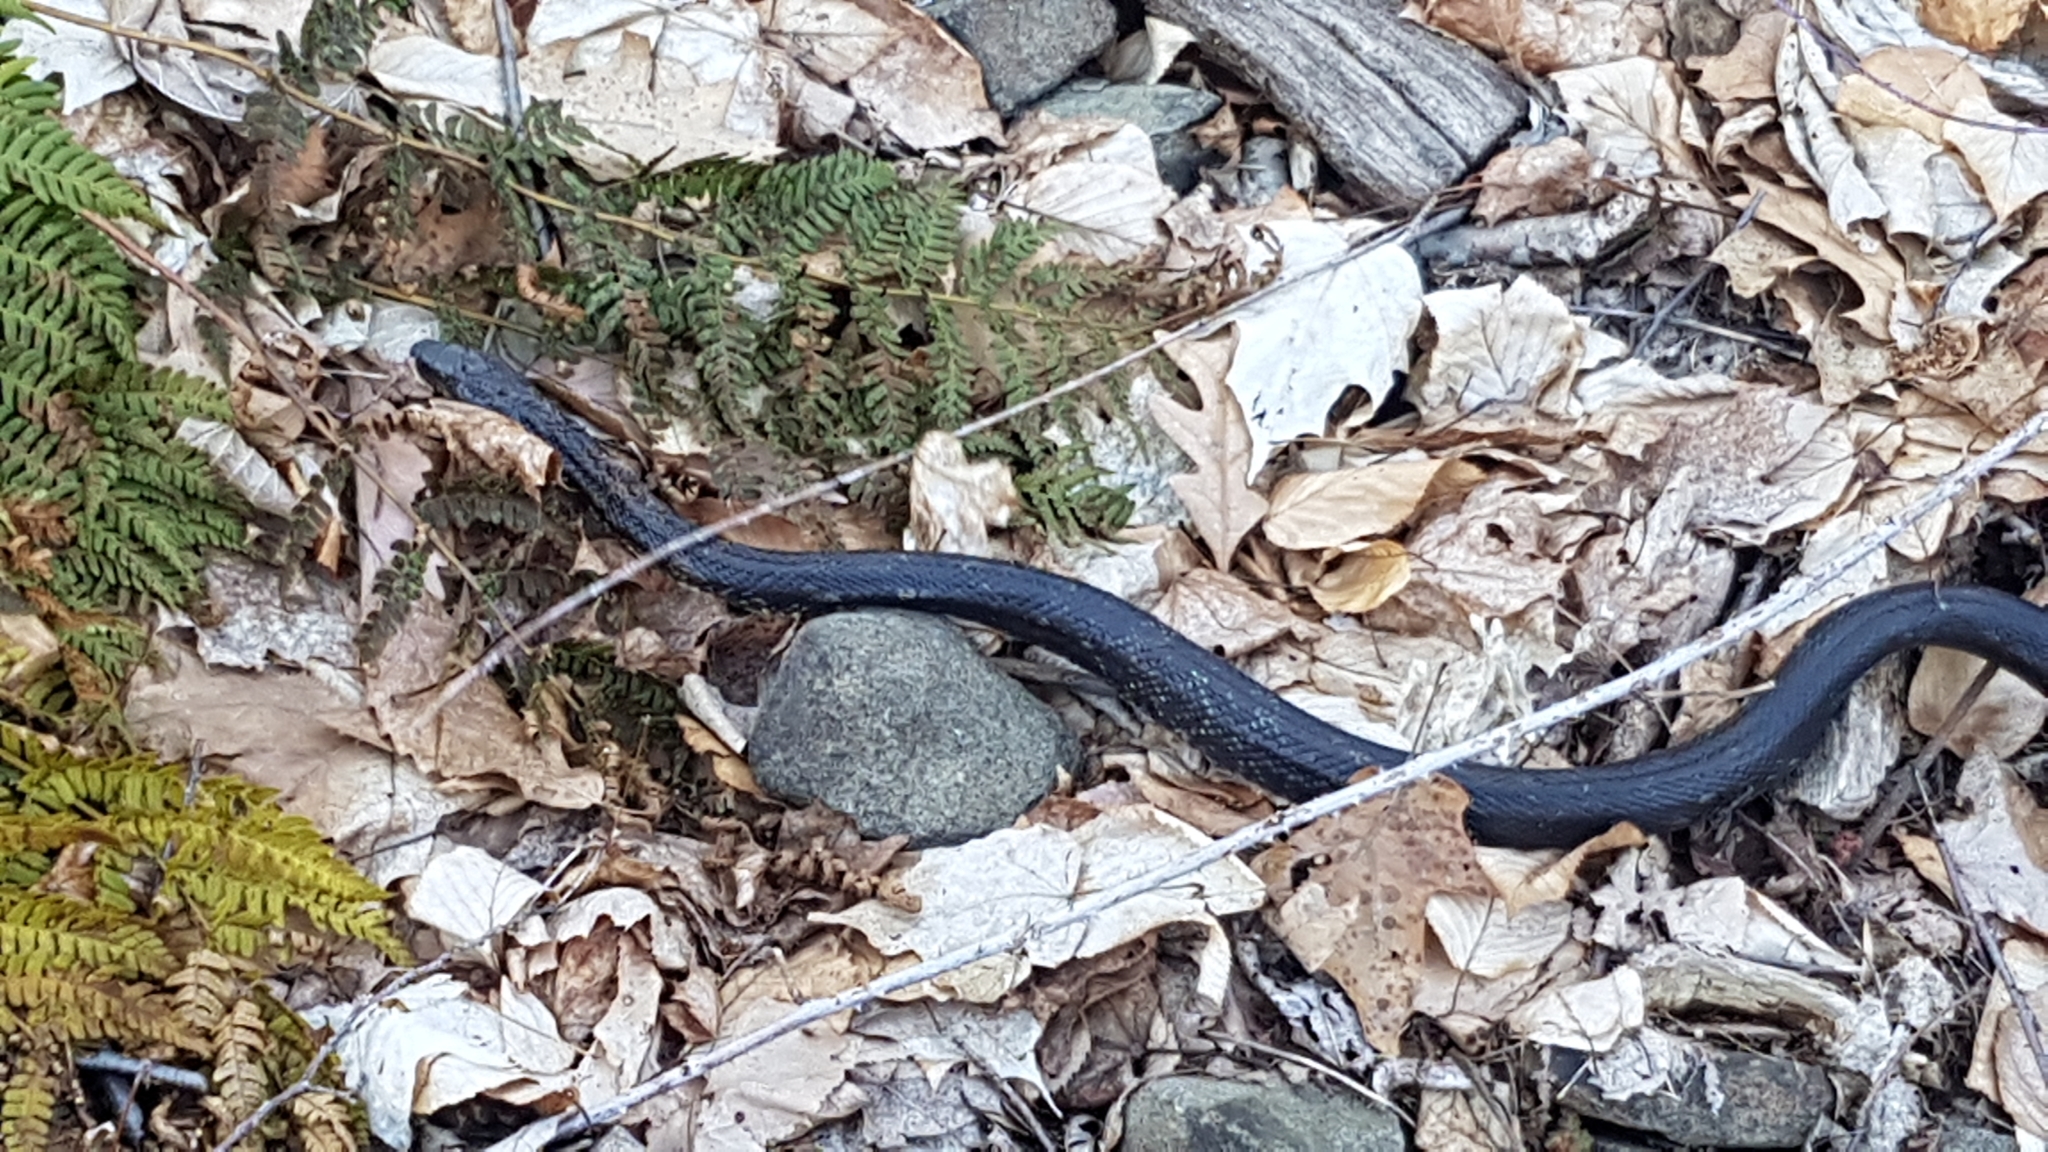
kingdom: Animalia
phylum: Chordata
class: Squamata
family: Colubridae
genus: Pantherophis
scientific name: Pantherophis alleghaniensis
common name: Eastern rat snake
